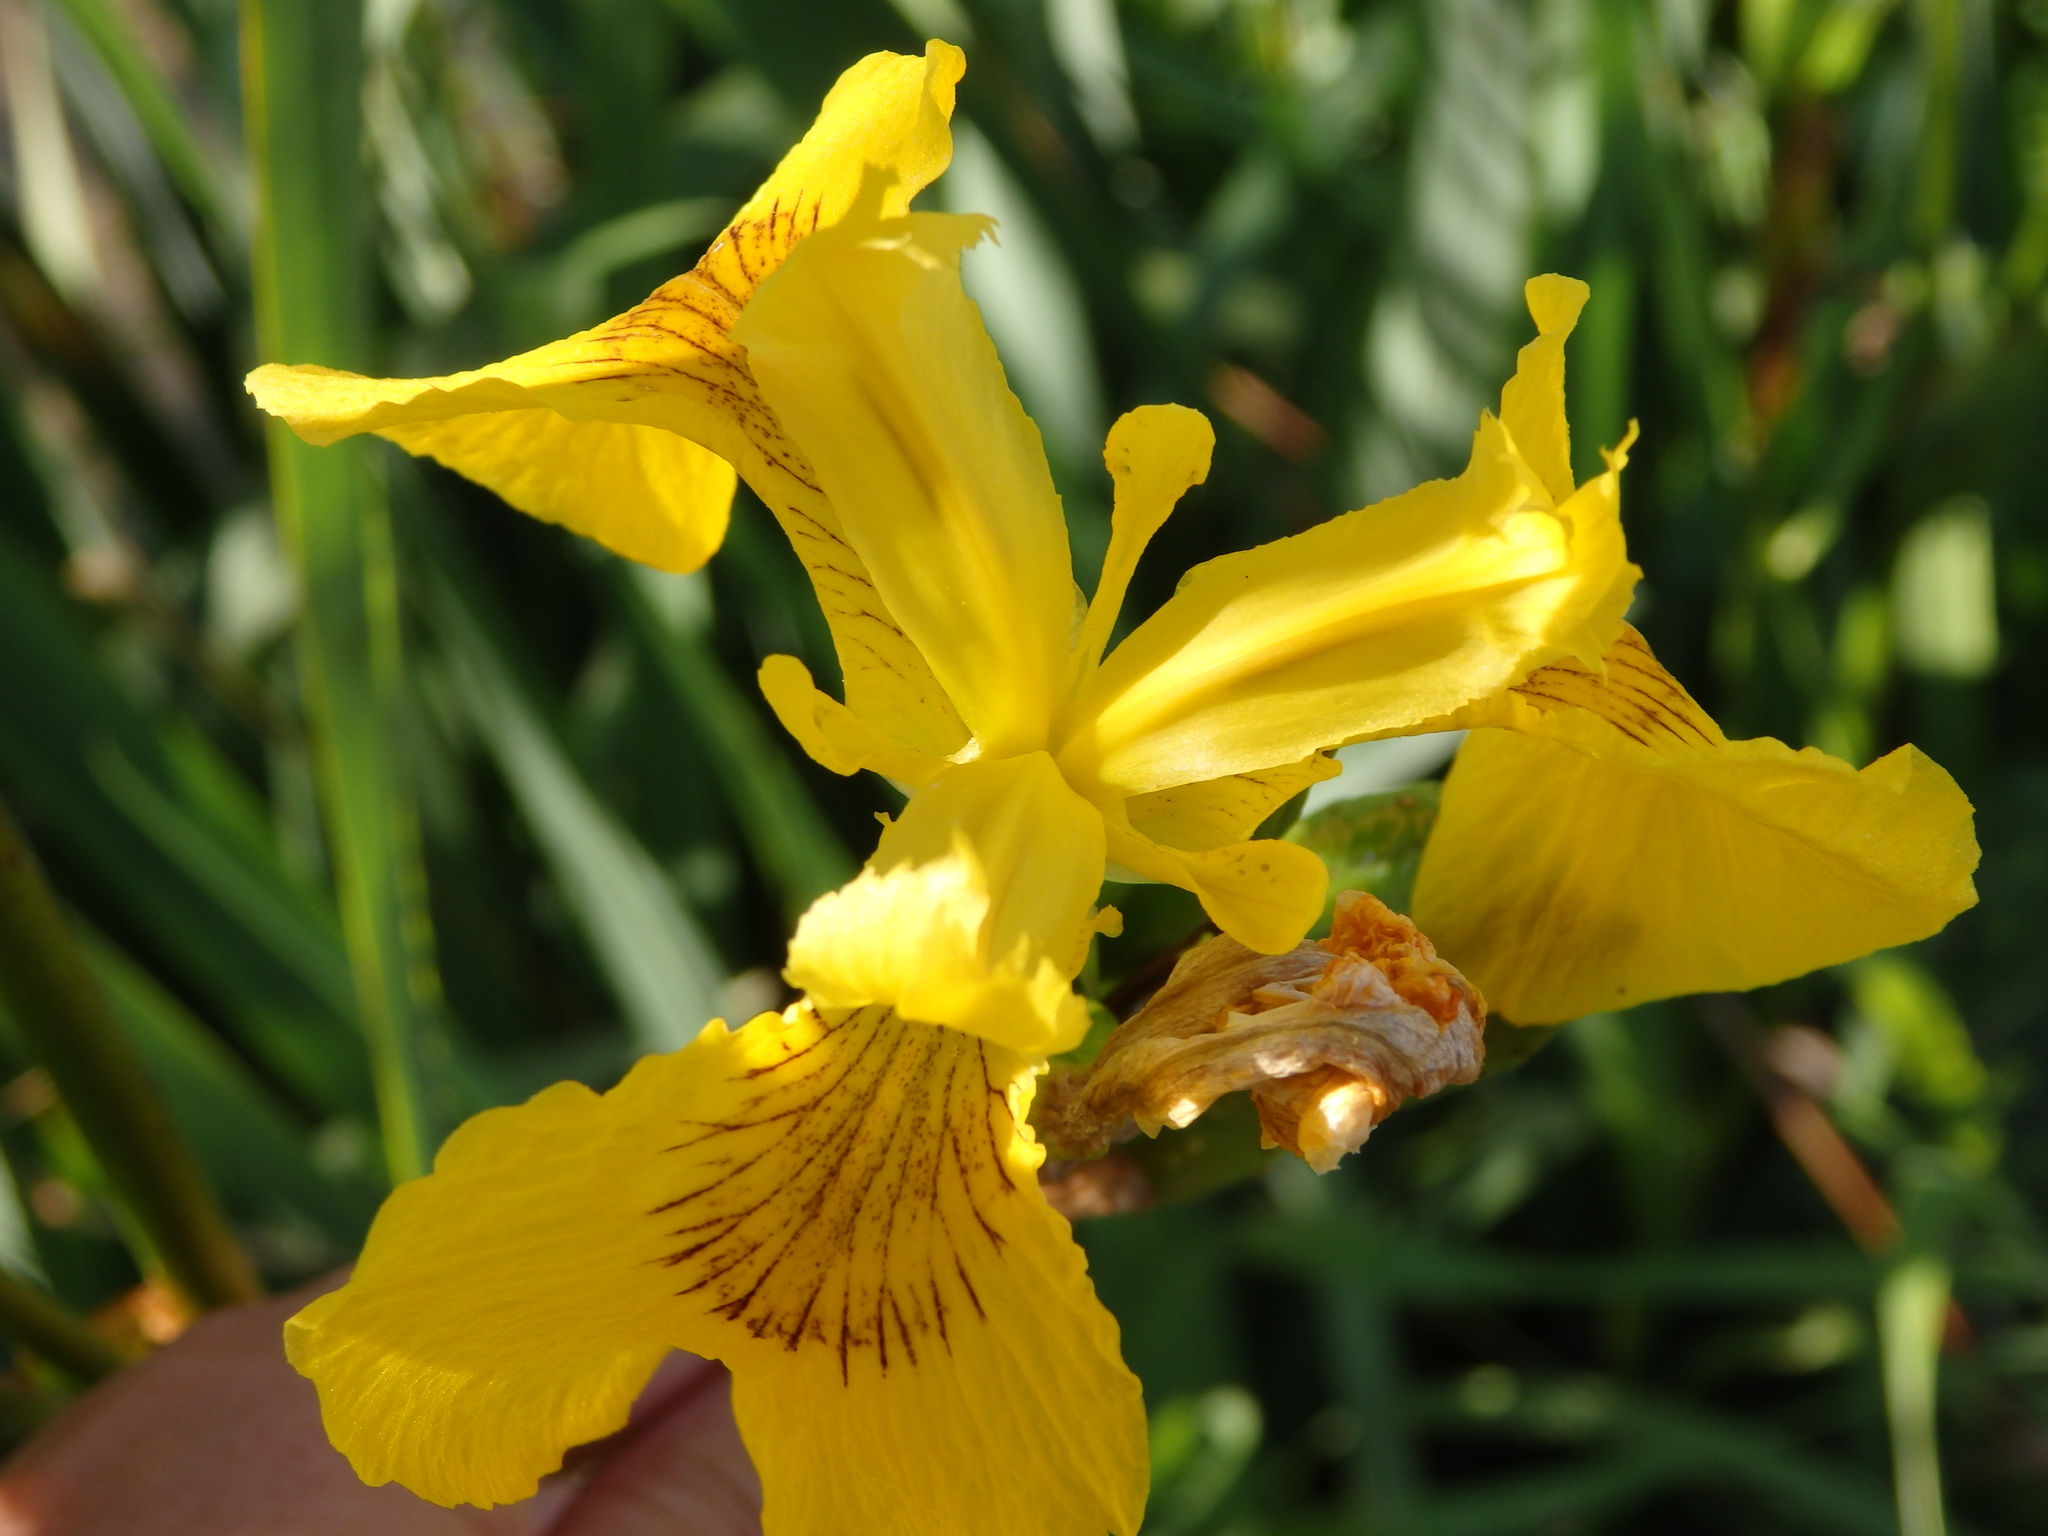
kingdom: Plantae
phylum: Tracheophyta
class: Liliopsida
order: Asparagales
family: Iridaceae
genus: Iris
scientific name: Iris pseudacorus
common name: Yellow flag
